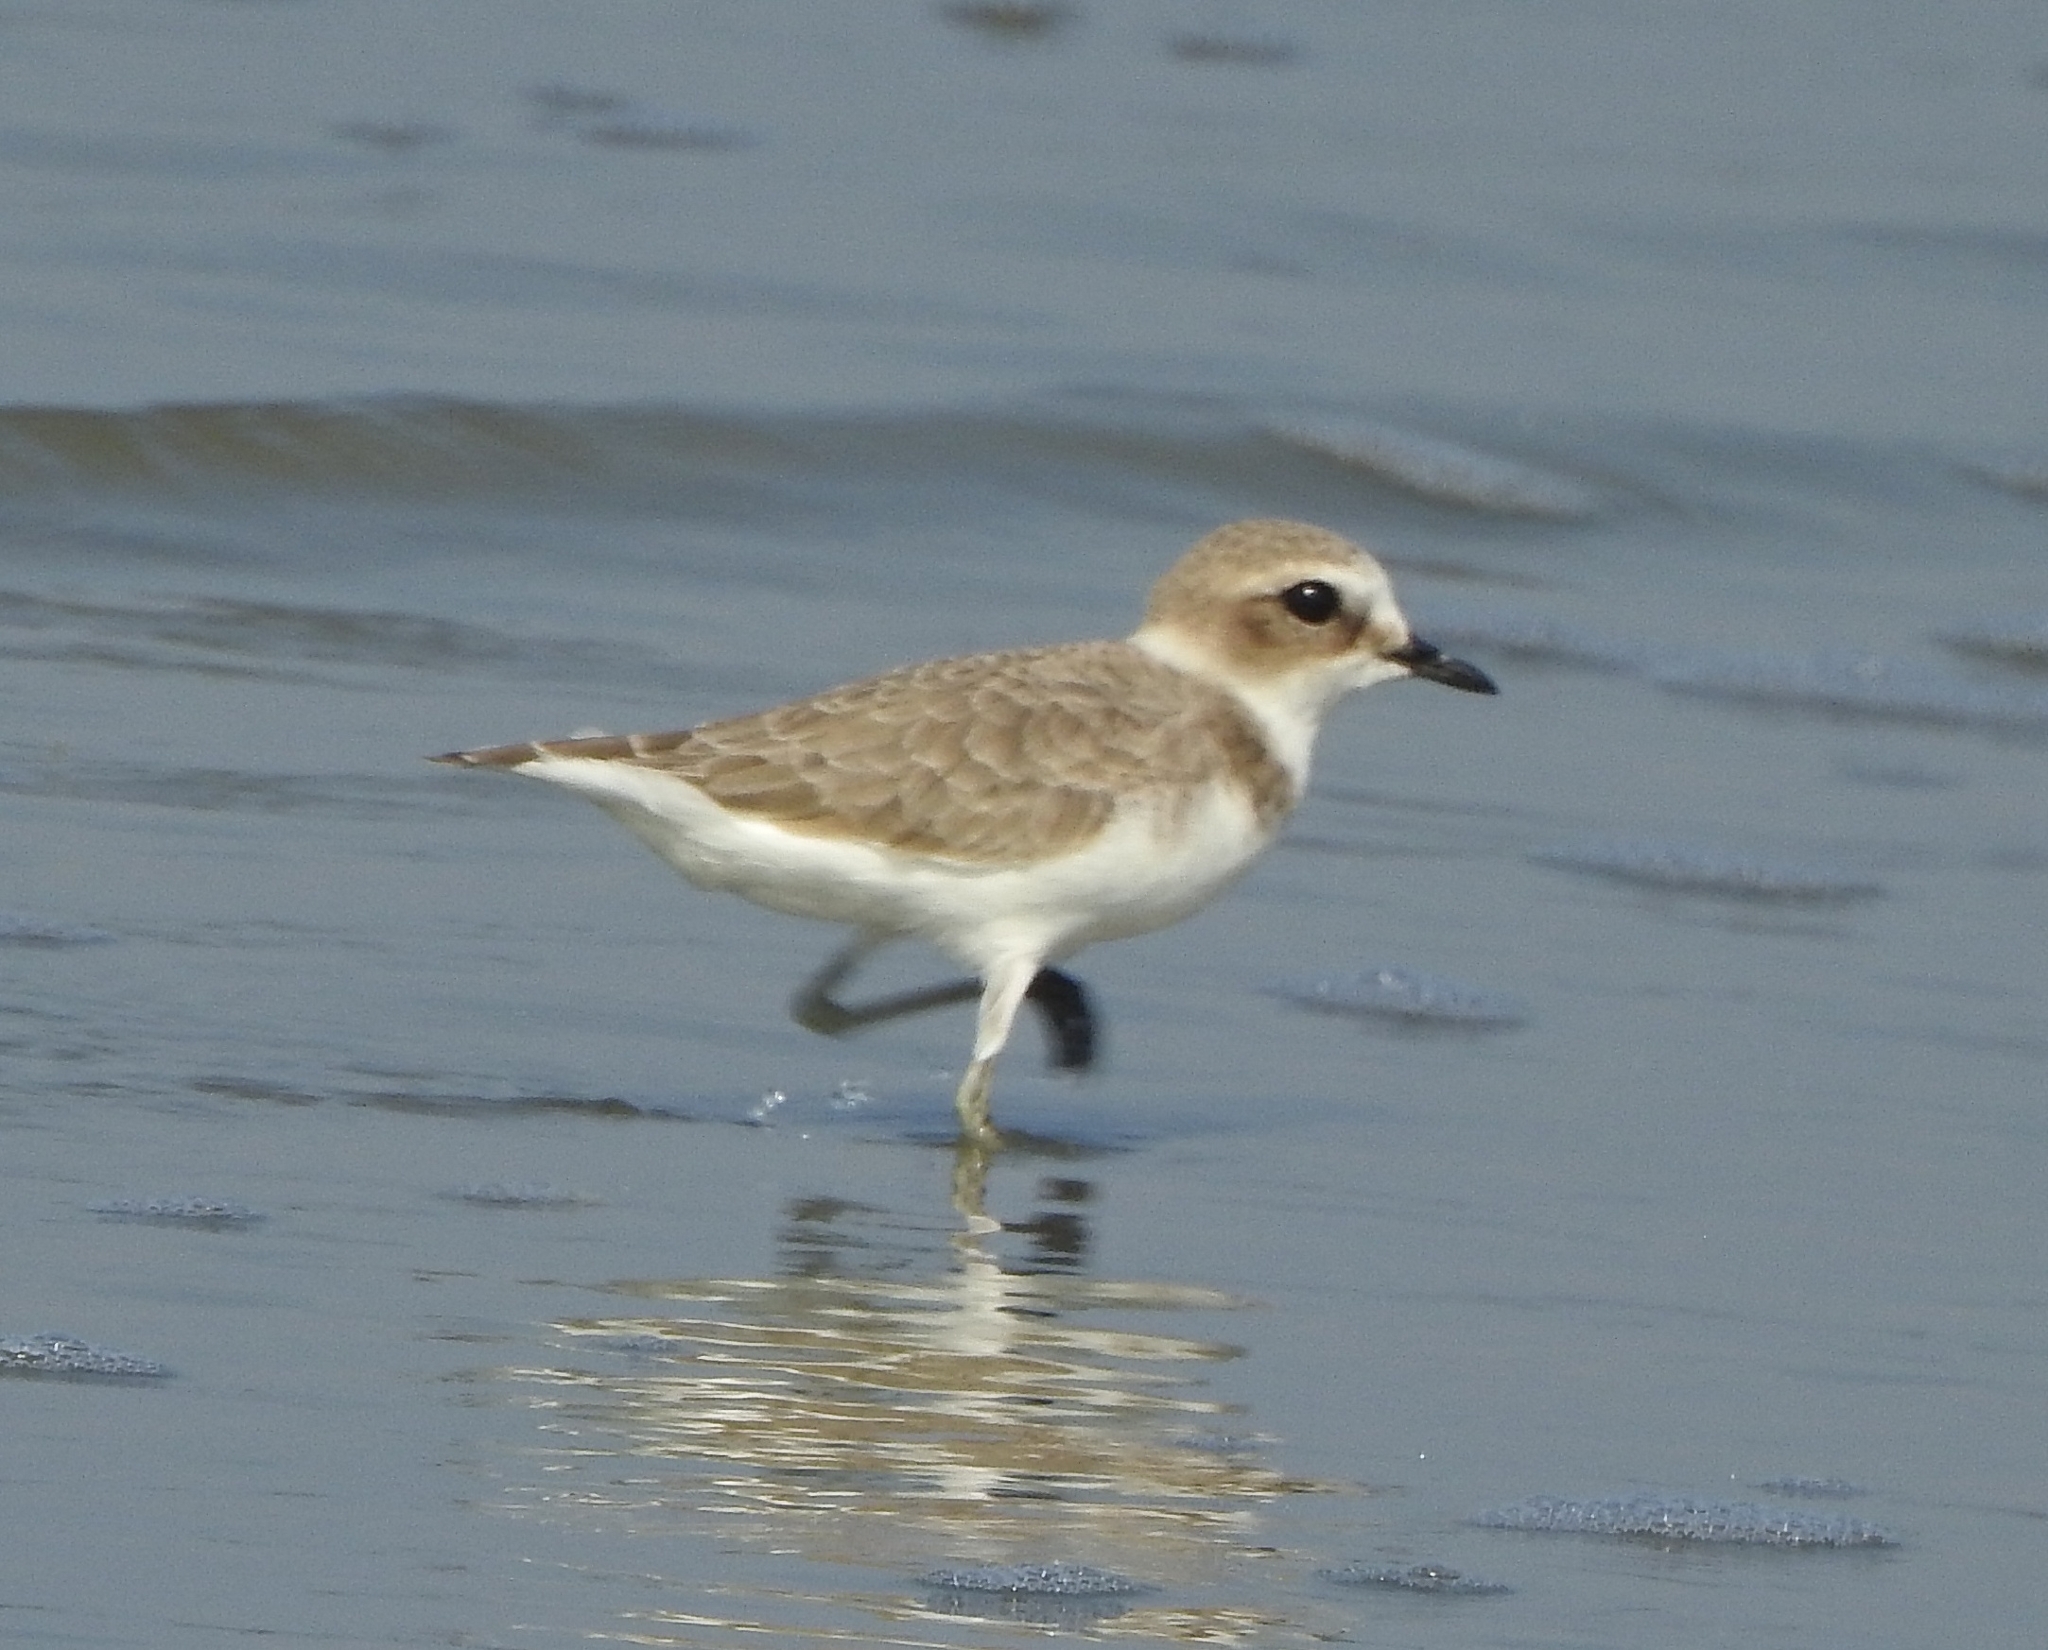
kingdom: Animalia
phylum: Chordata
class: Aves
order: Charadriiformes
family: Charadriidae
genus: Charadrius
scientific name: Charadrius alexandrinus
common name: Kentish plover
